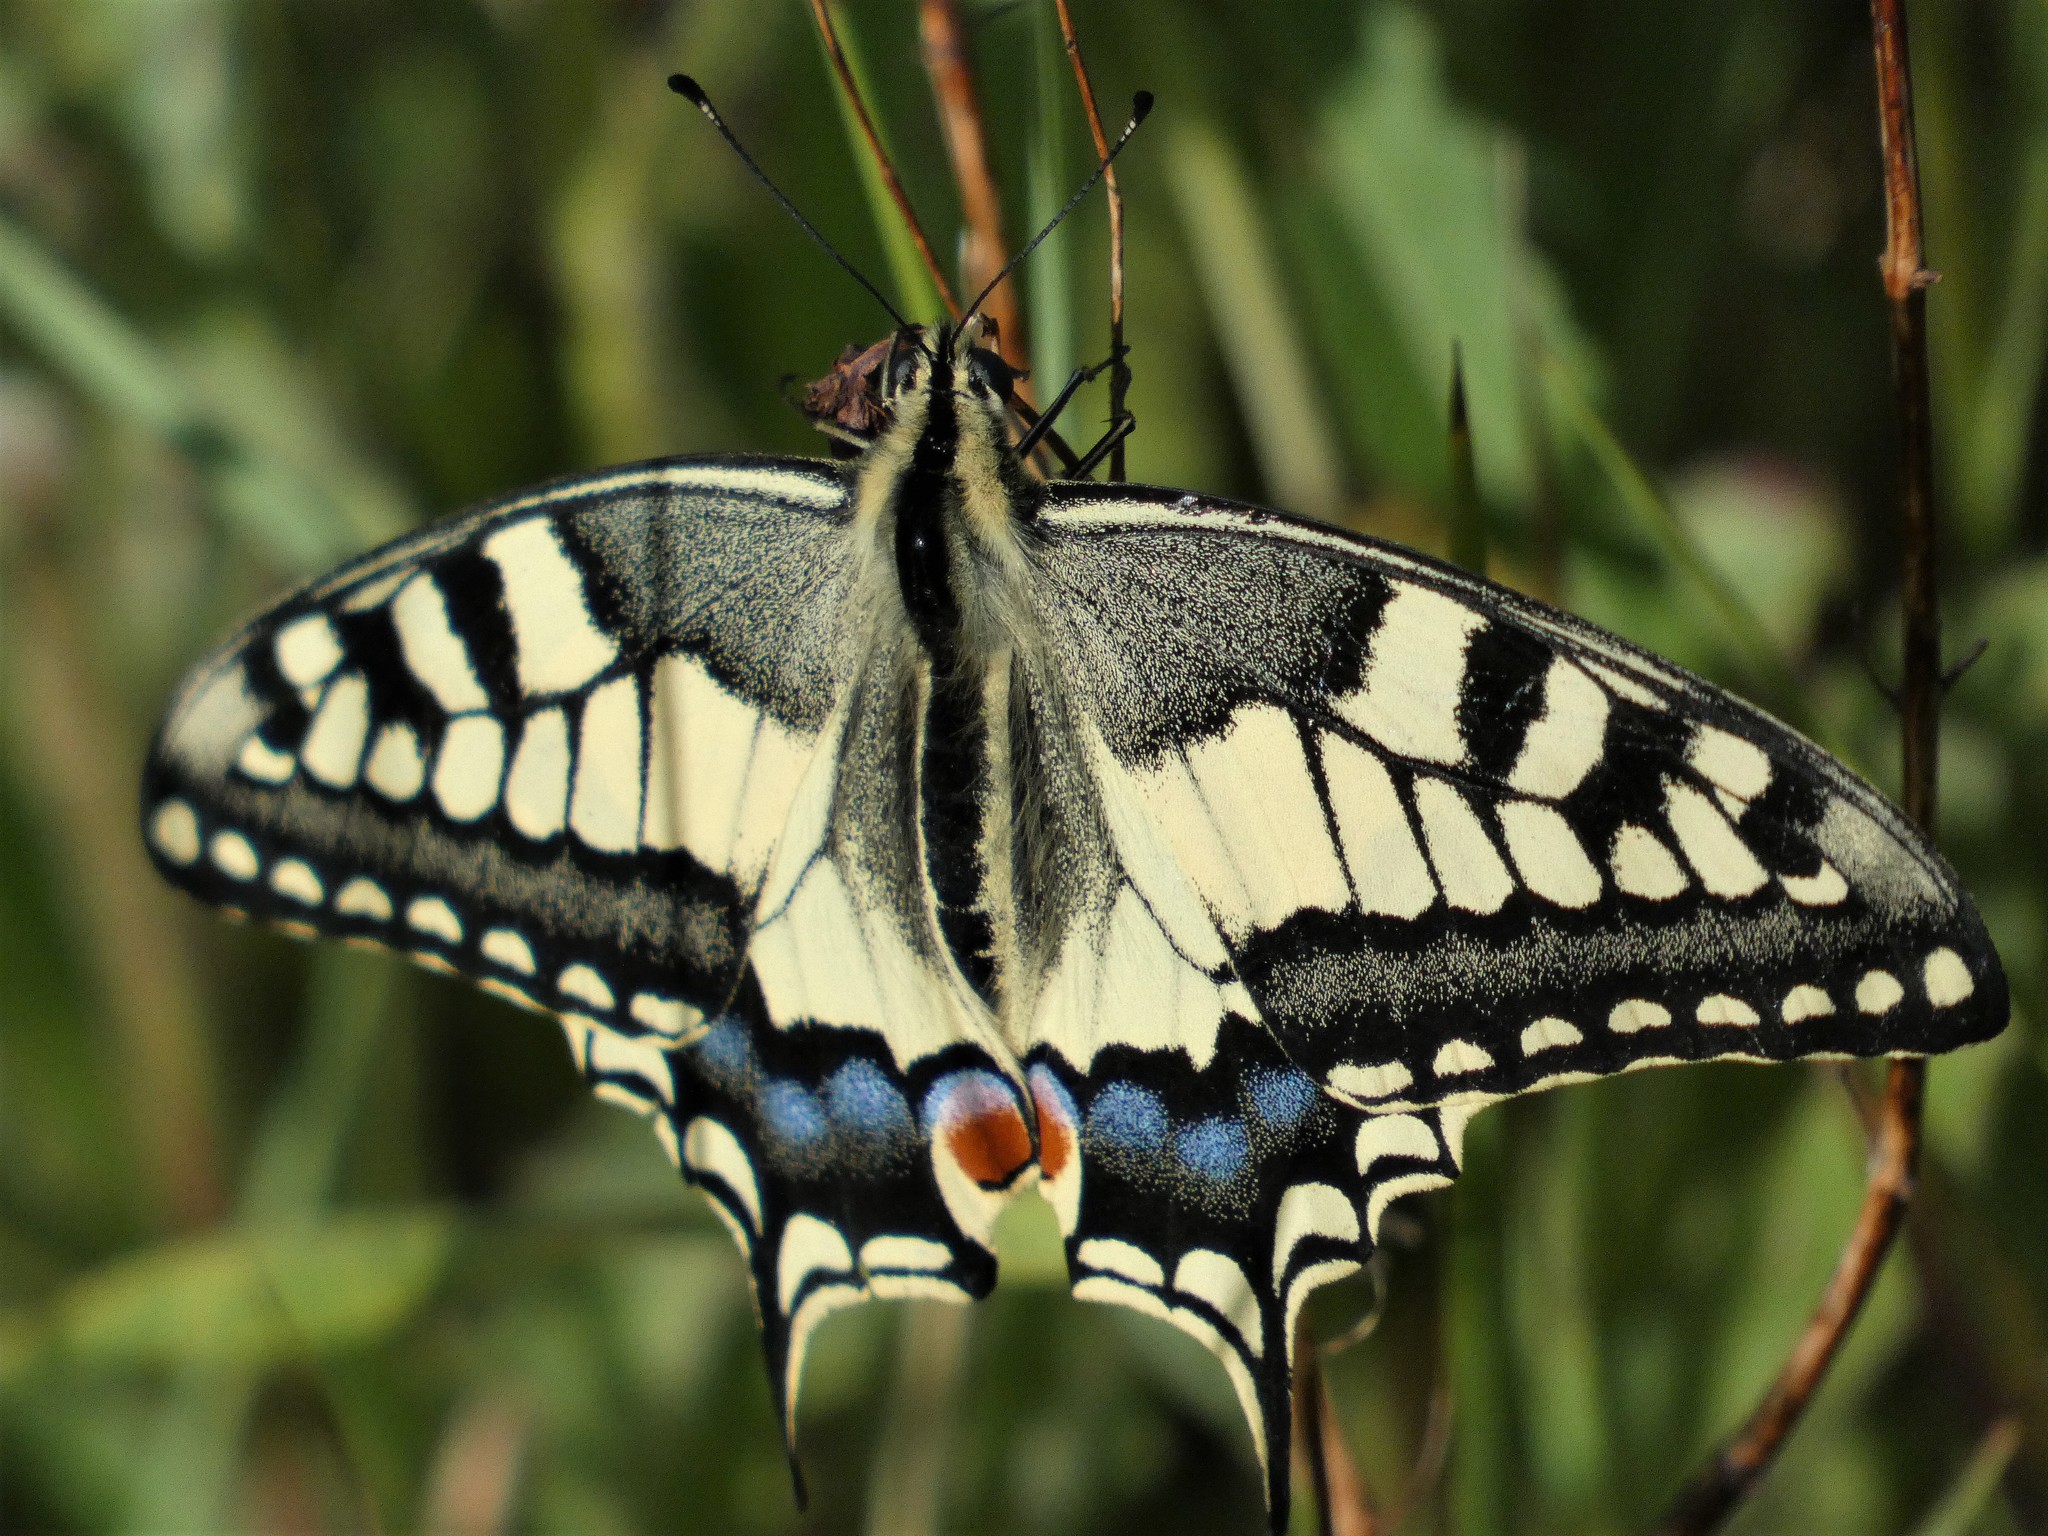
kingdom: Animalia
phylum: Arthropoda
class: Insecta
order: Lepidoptera
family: Papilionidae
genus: Papilio
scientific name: Papilio machaon
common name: Swallowtail
